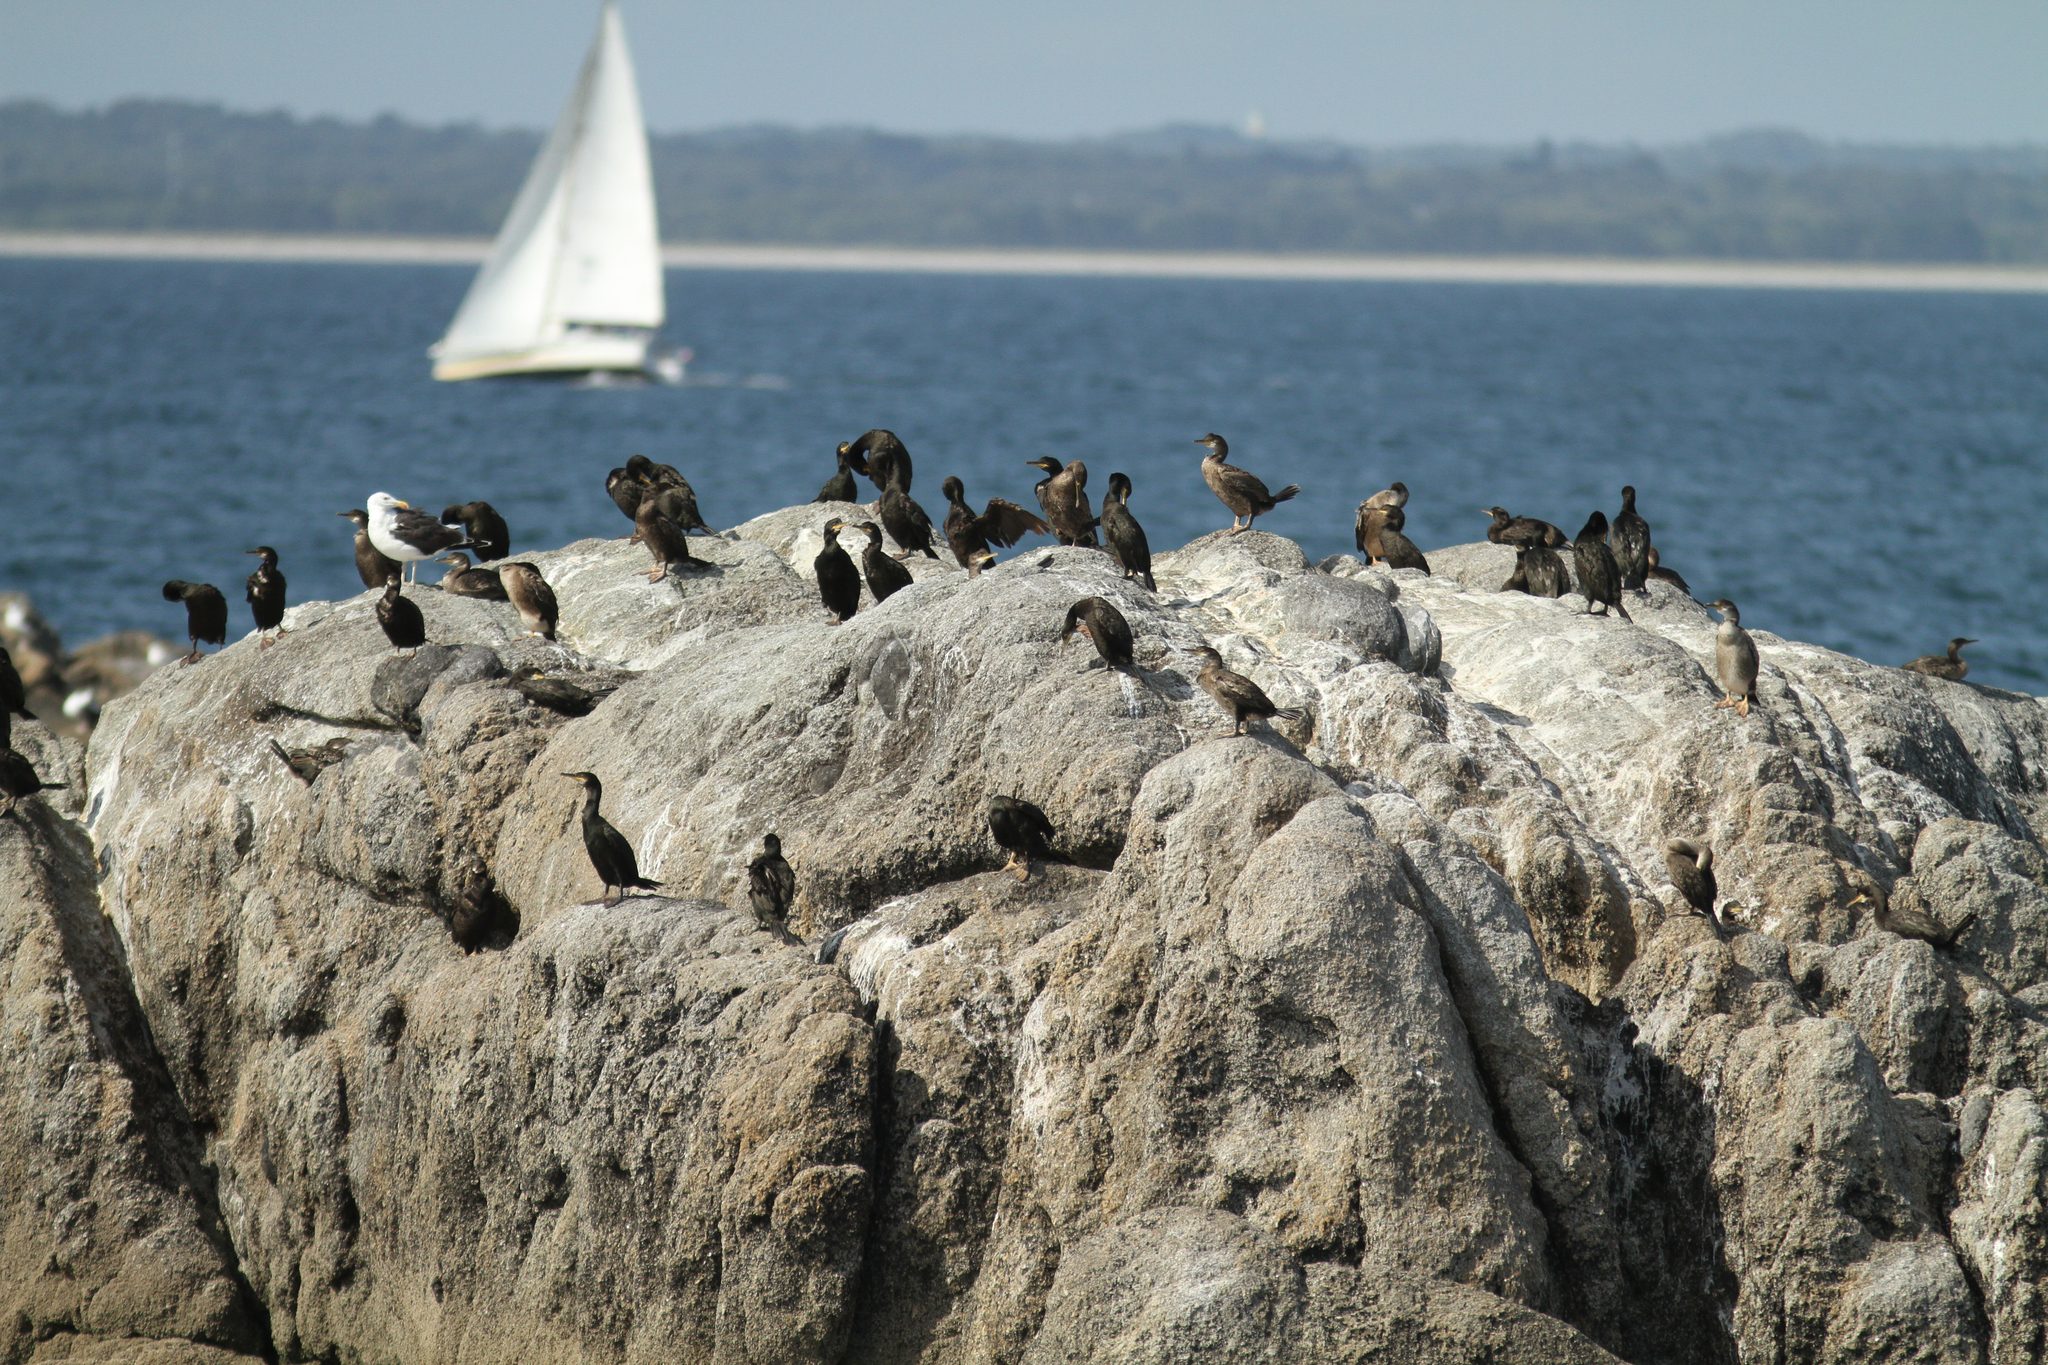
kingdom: Animalia
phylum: Chordata
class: Aves
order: Suliformes
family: Phalacrocoracidae
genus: Phalacrocorax
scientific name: Phalacrocorax aristotelis
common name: European shag
